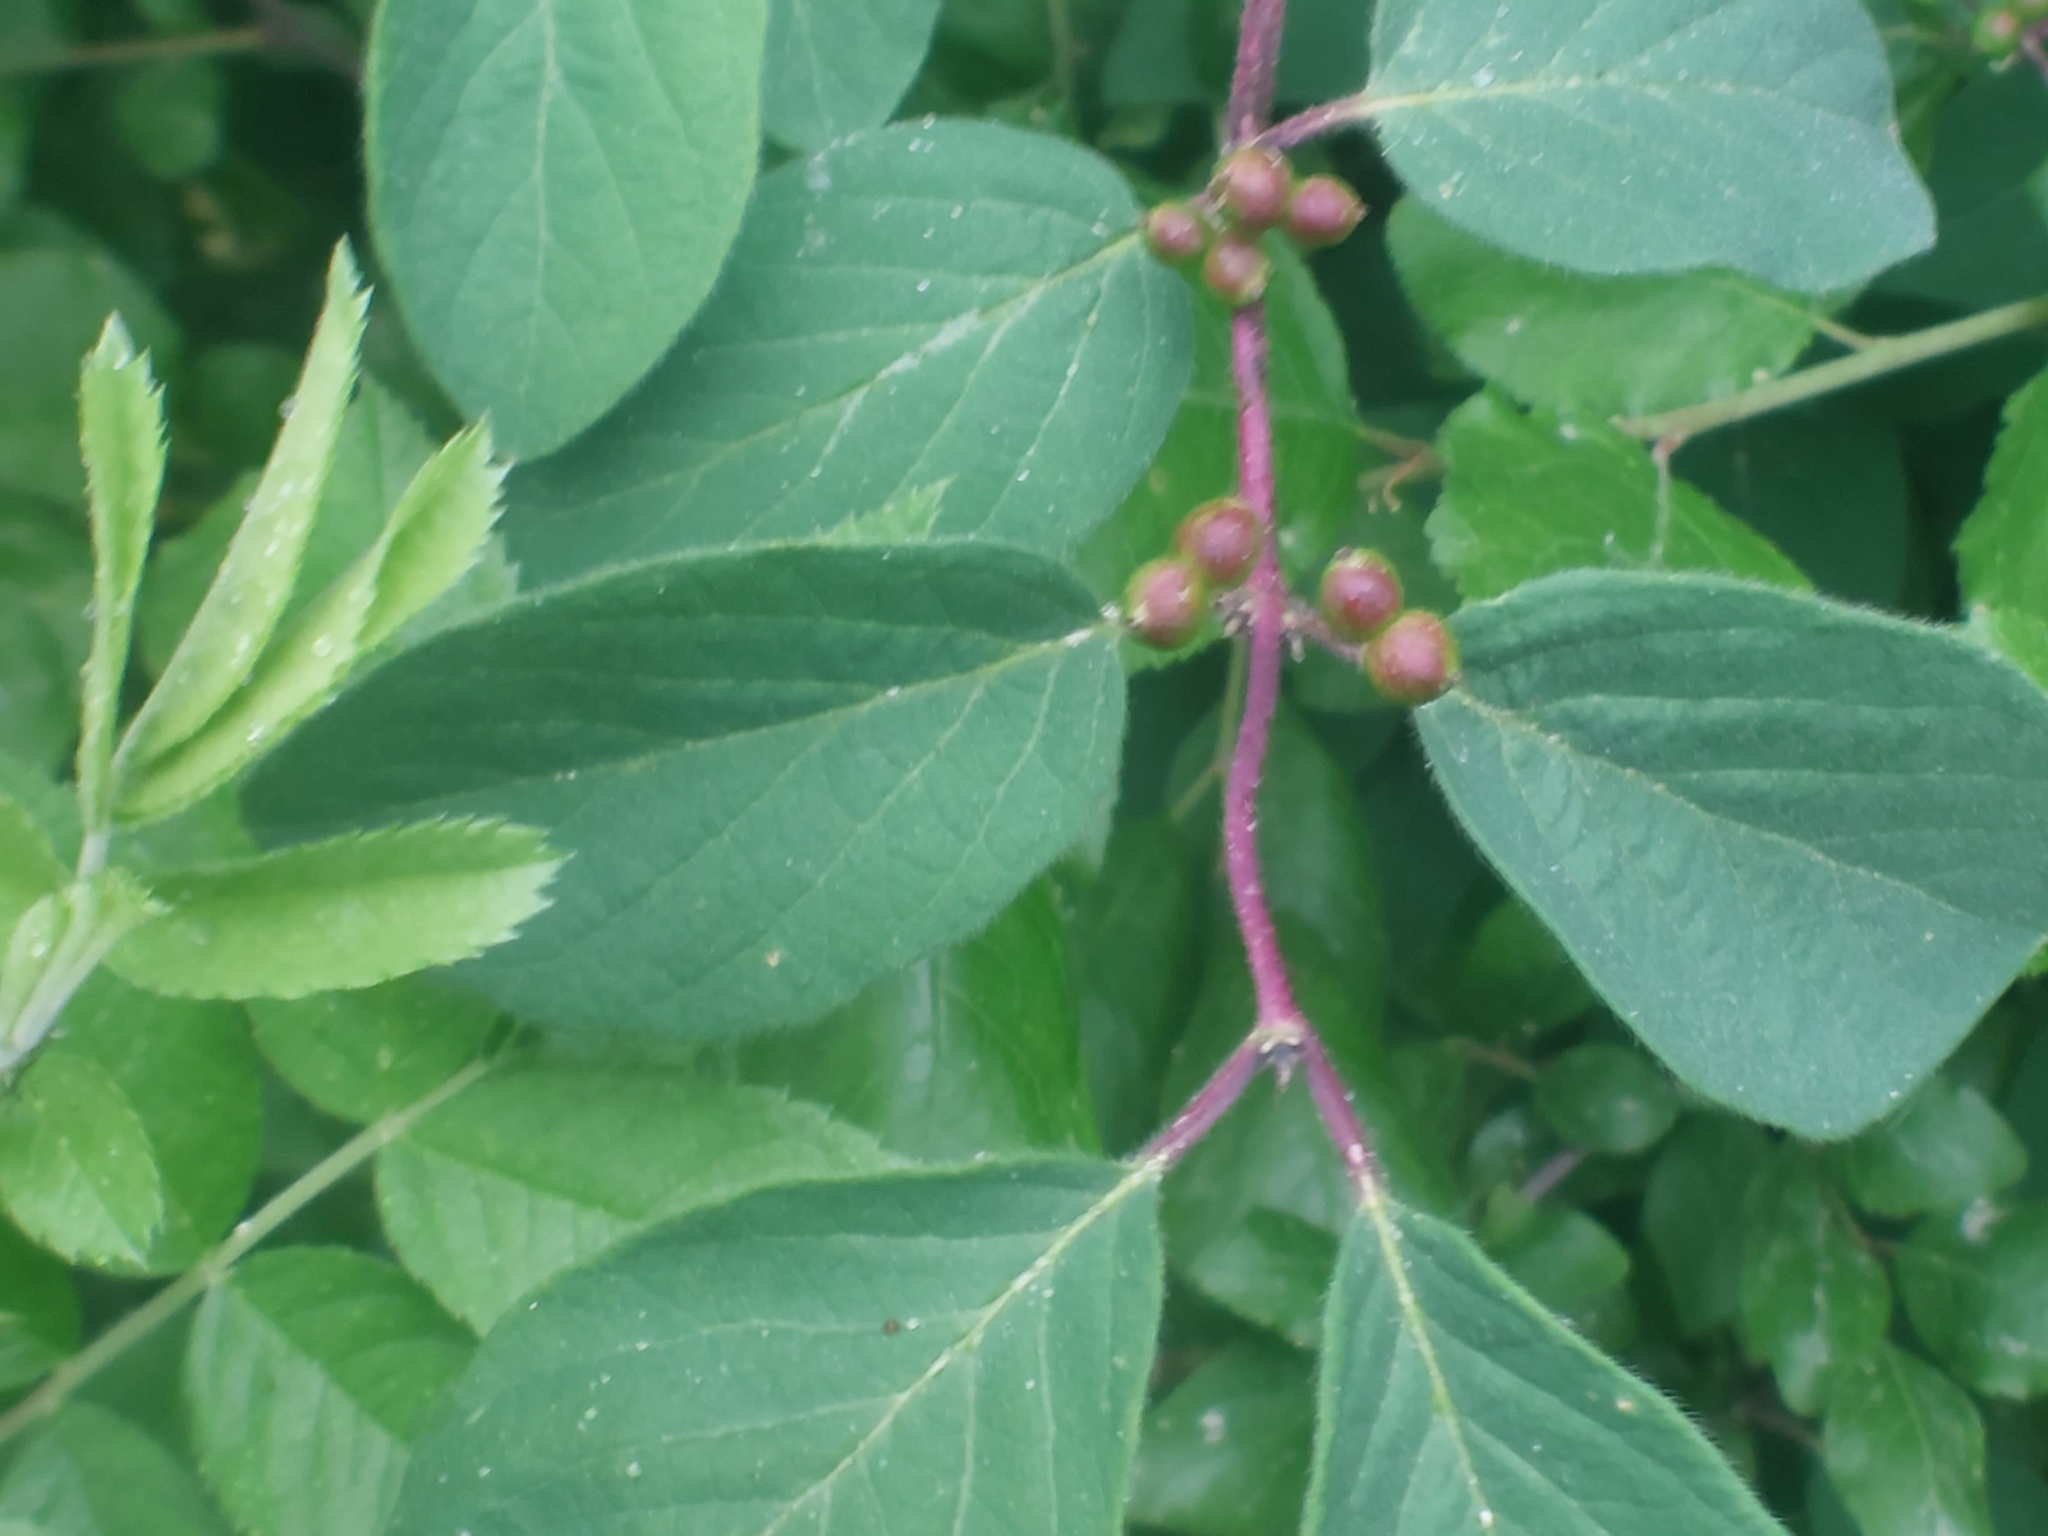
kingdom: Plantae
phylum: Tracheophyta
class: Magnoliopsida
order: Dipsacales
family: Caprifoliaceae
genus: Lonicera
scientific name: Lonicera xylosteum
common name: Fly honeysuckle
